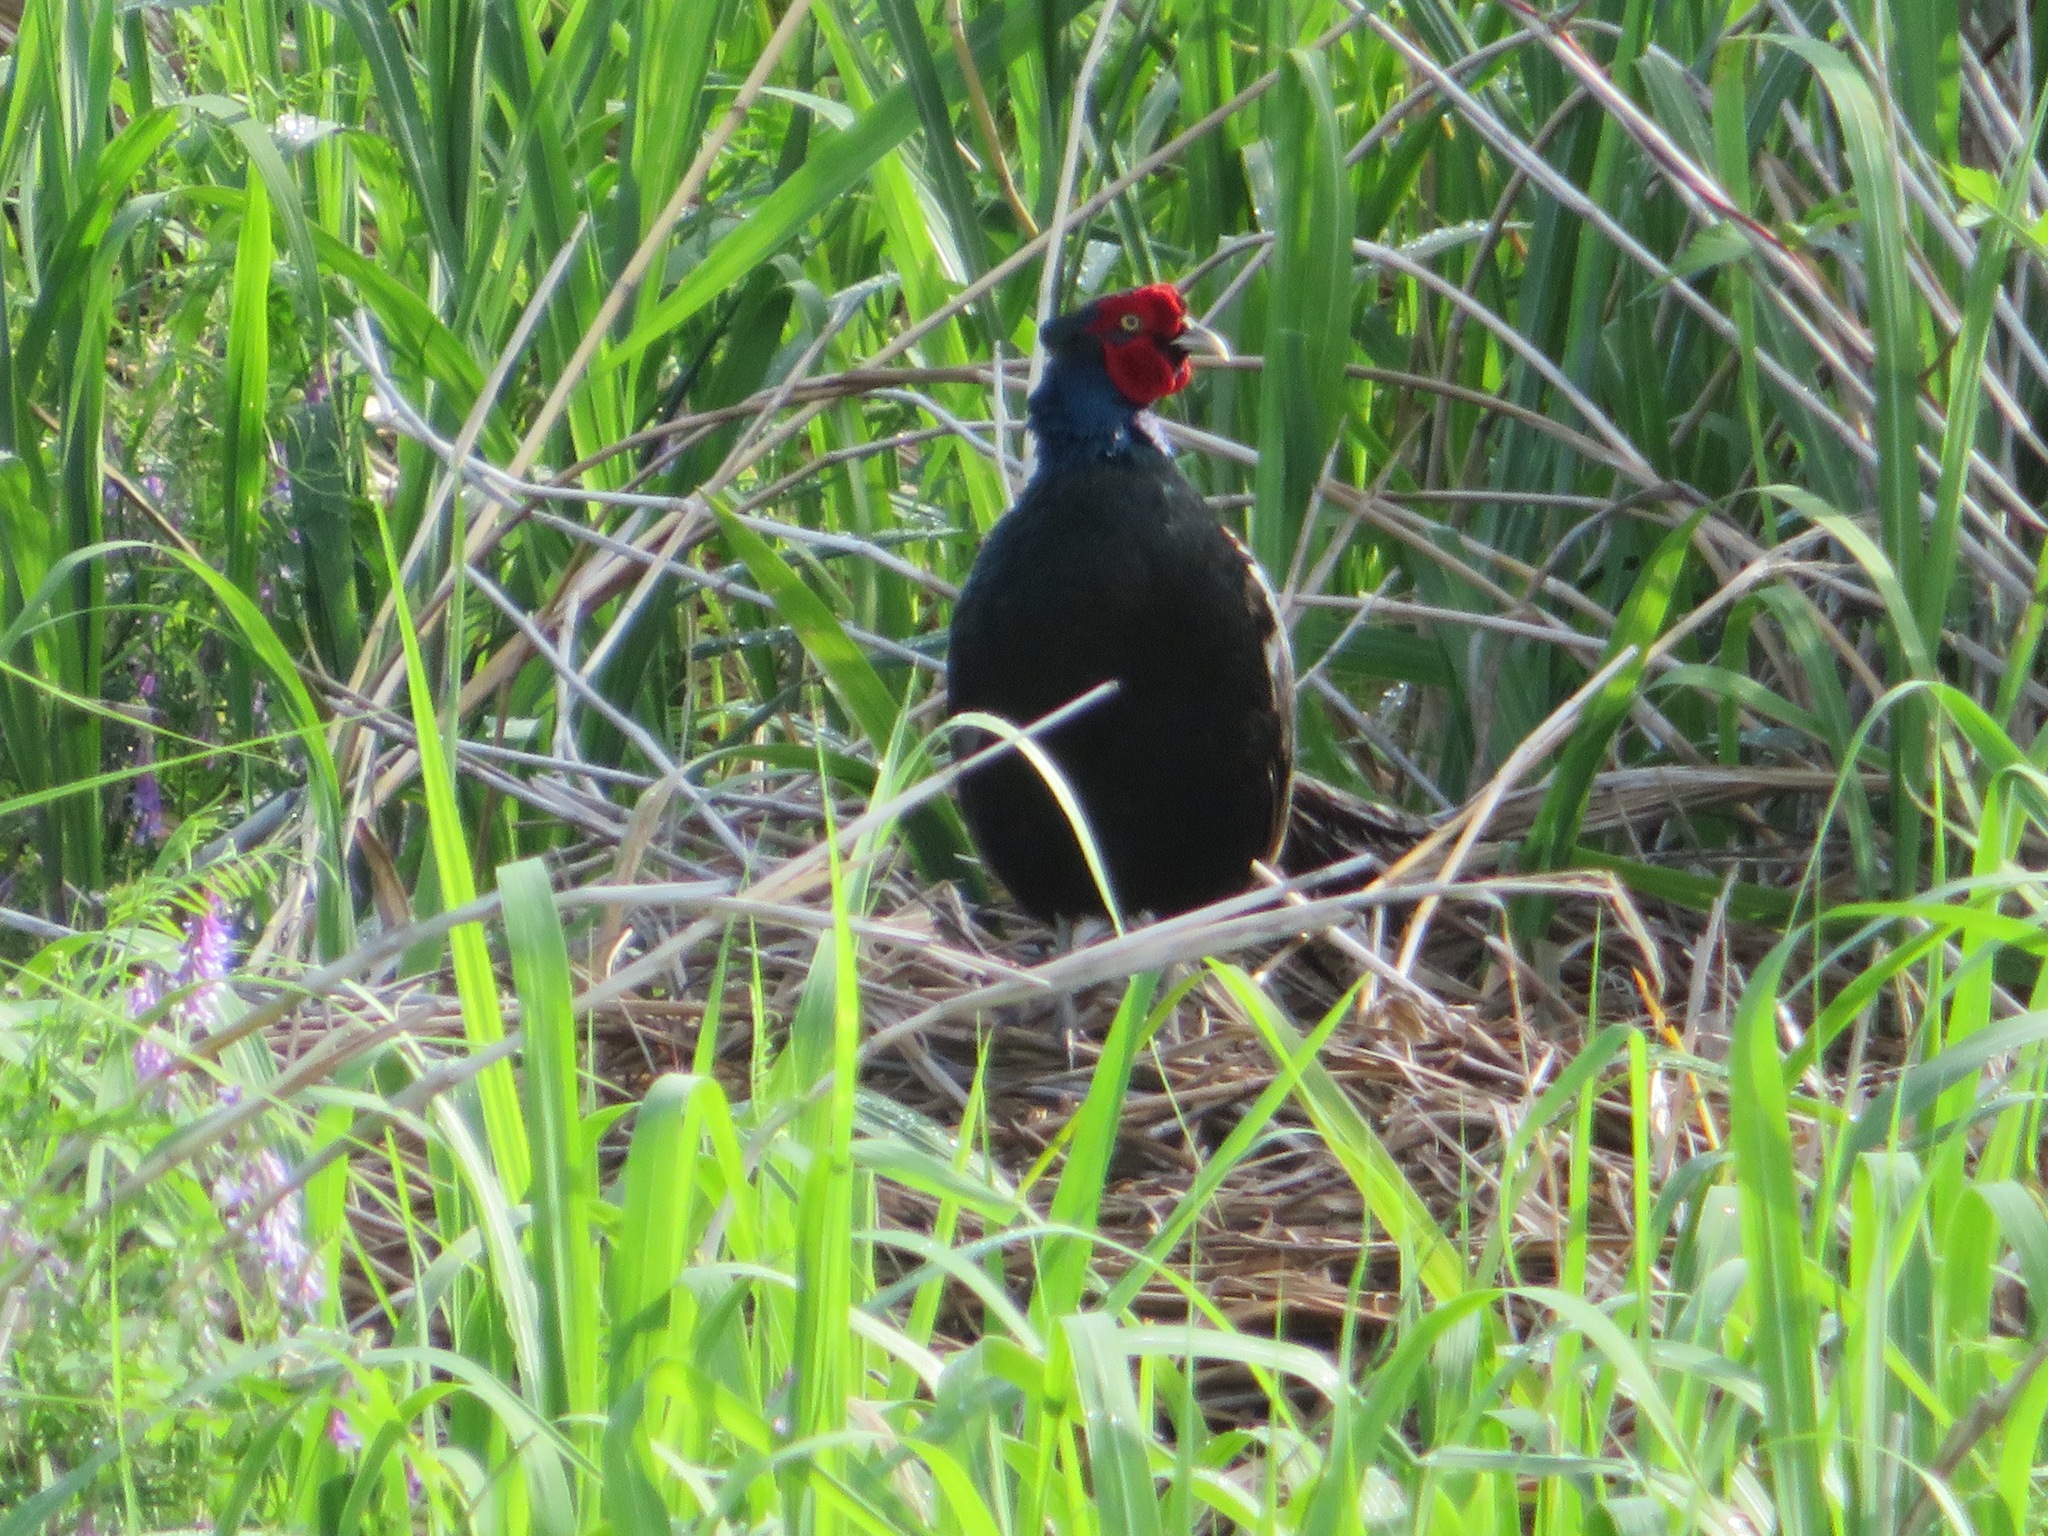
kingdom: Animalia
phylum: Chordata
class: Aves
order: Galliformes
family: Phasianidae
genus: Phasianus
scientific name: Phasianus versicolor
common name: Green pheasant
